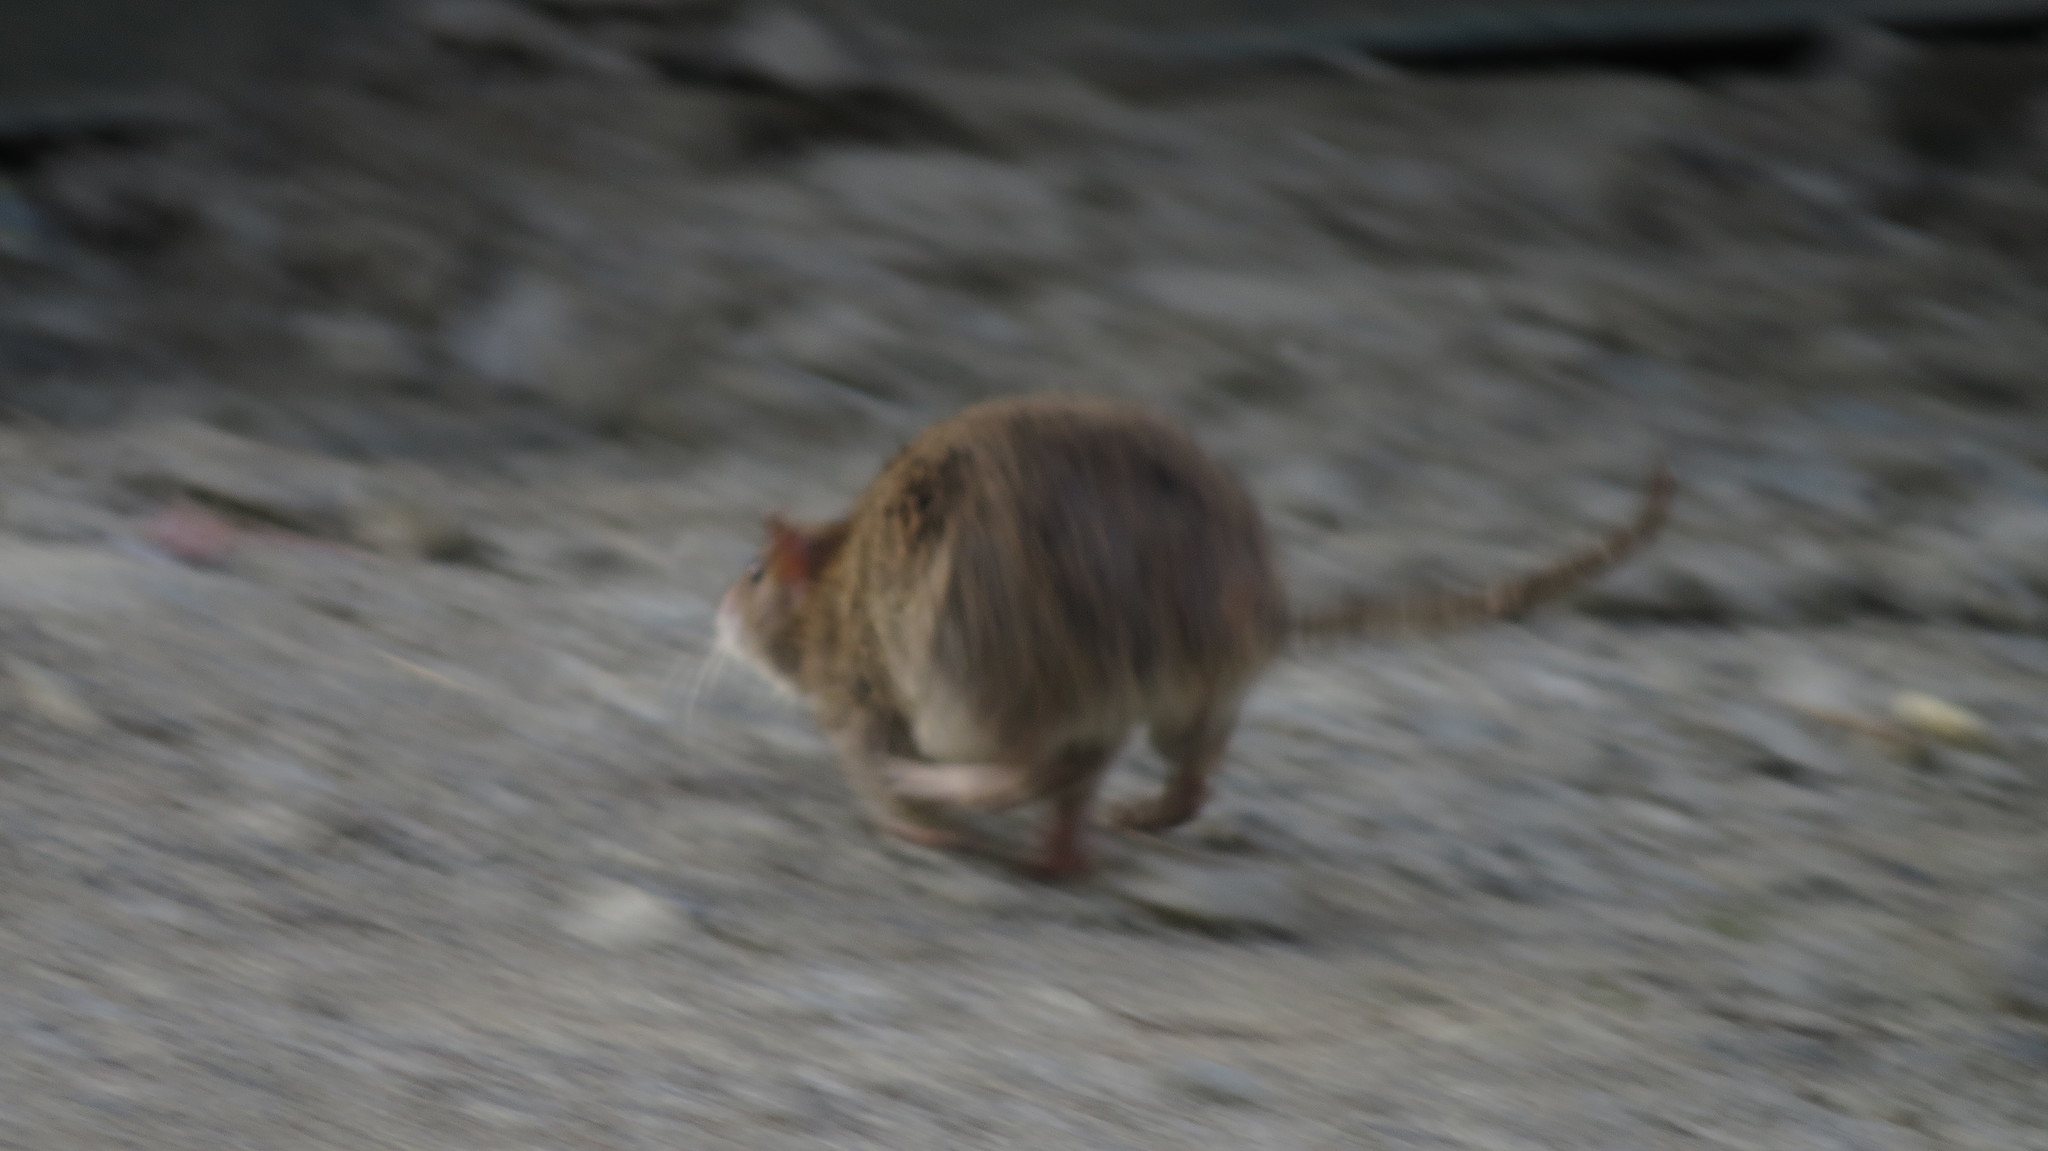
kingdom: Animalia
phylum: Chordata
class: Mammalia
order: Rodentia
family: Muridae
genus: Rattus
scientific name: Rattus norvegicus
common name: Brown rat
